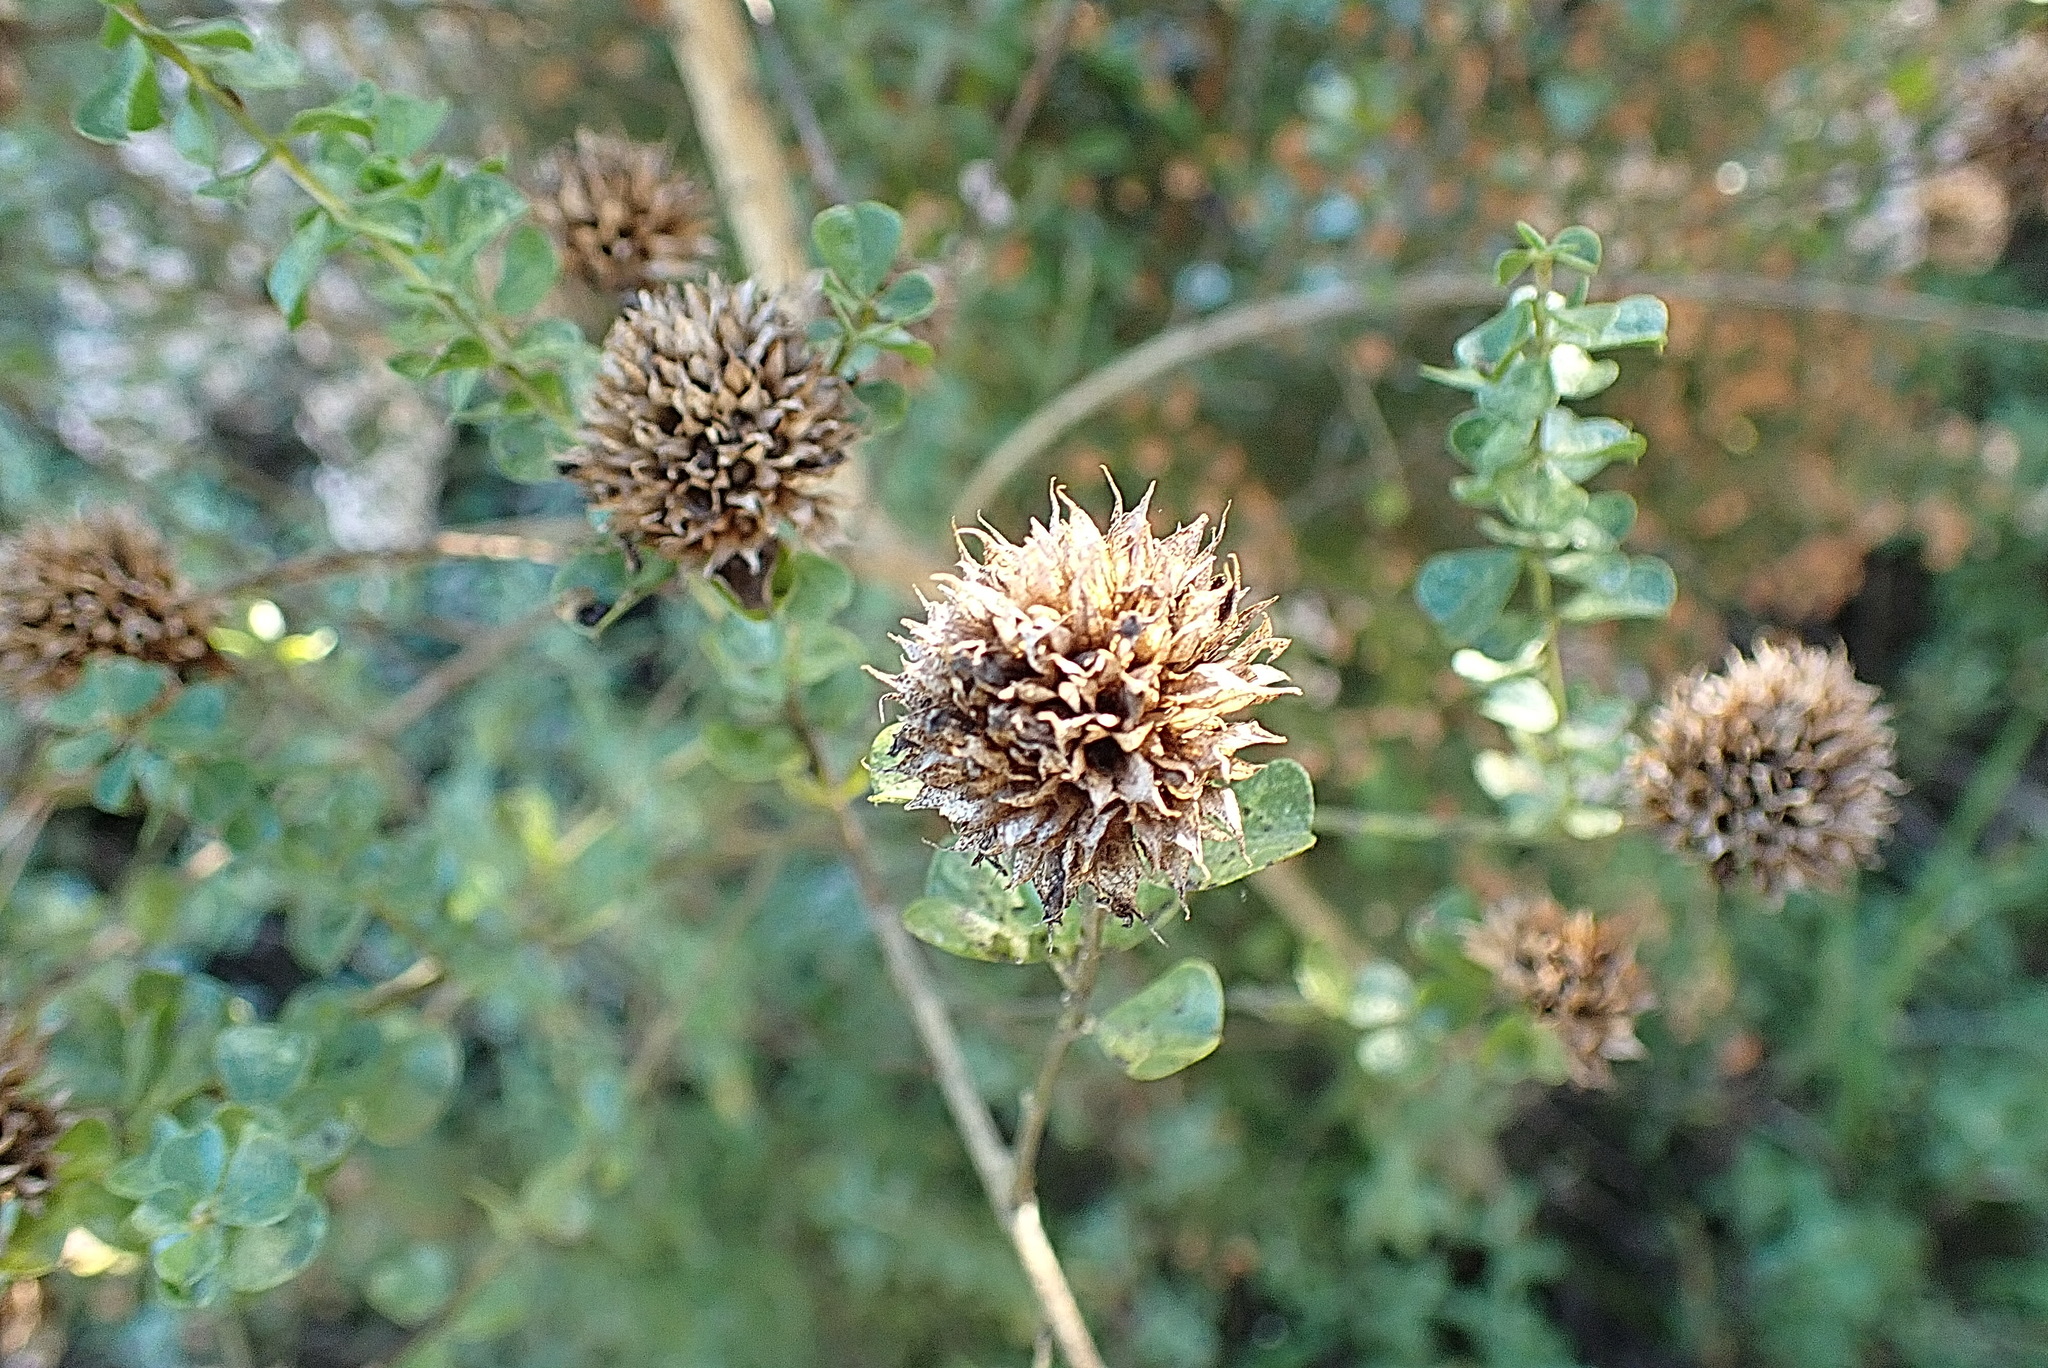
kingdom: Plantae
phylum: Tracheophyta
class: Magnoliopsida
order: Fabales
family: Fabaceae
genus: Psoralea
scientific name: Psoralea stachyera
